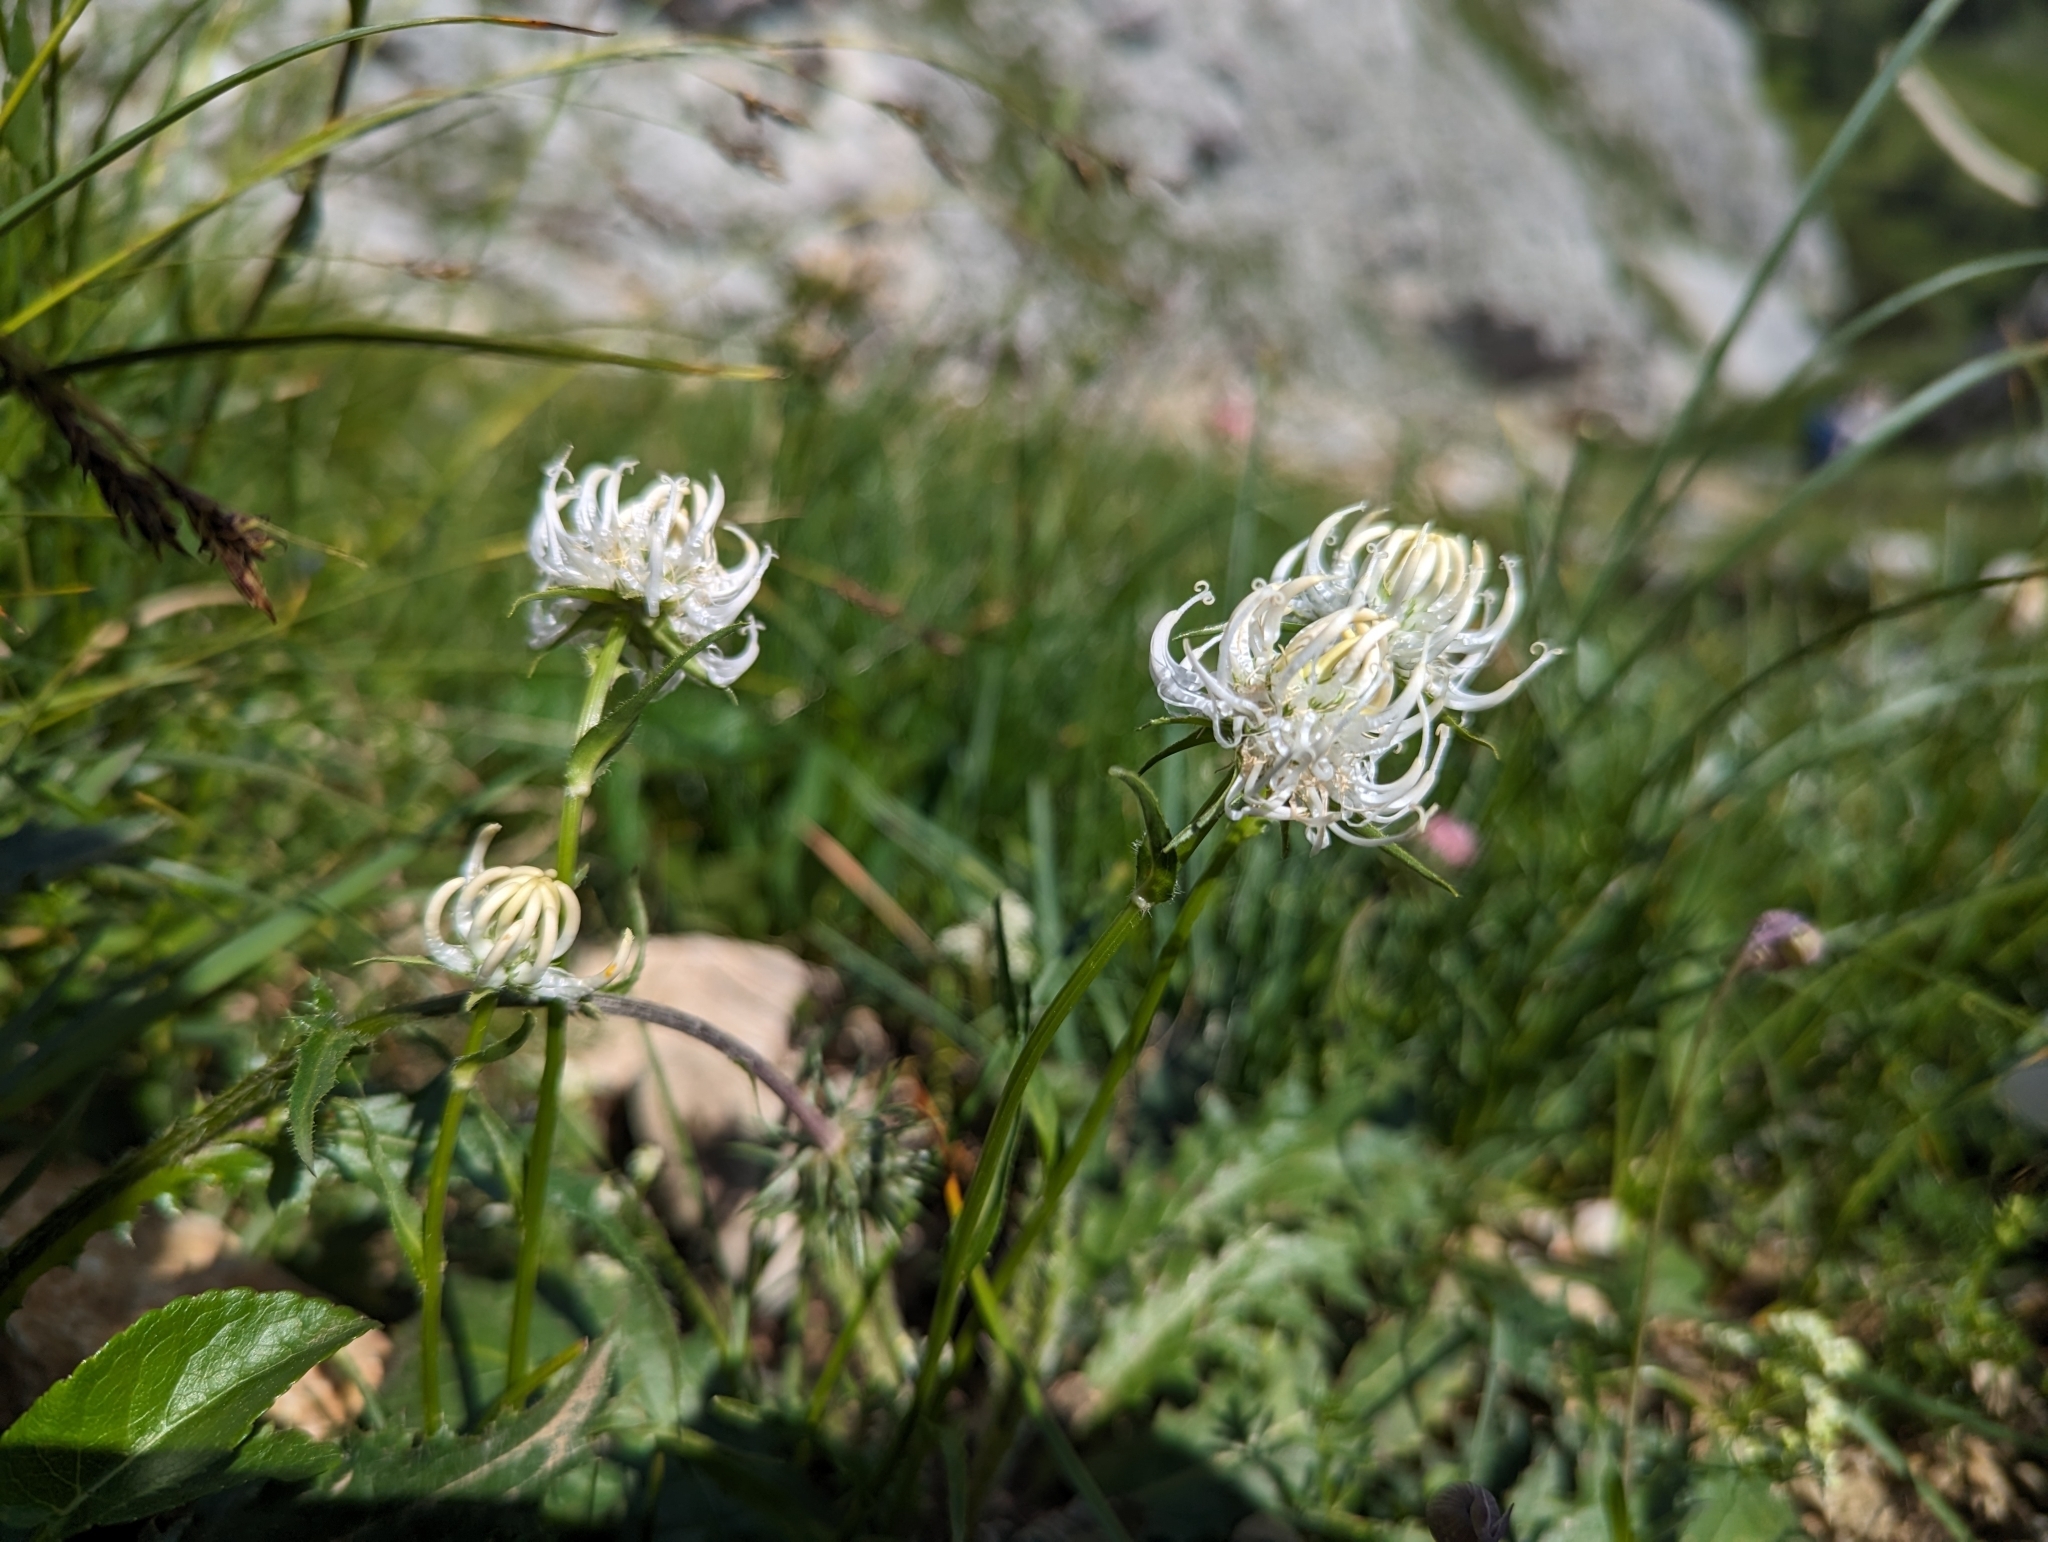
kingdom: Plantae
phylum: Tracheophyta
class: Magnoliopsida
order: Asterales
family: Campanulaceae
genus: Phyteuma
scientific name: Phyteuma orbiculare
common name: Round-headed rampion
